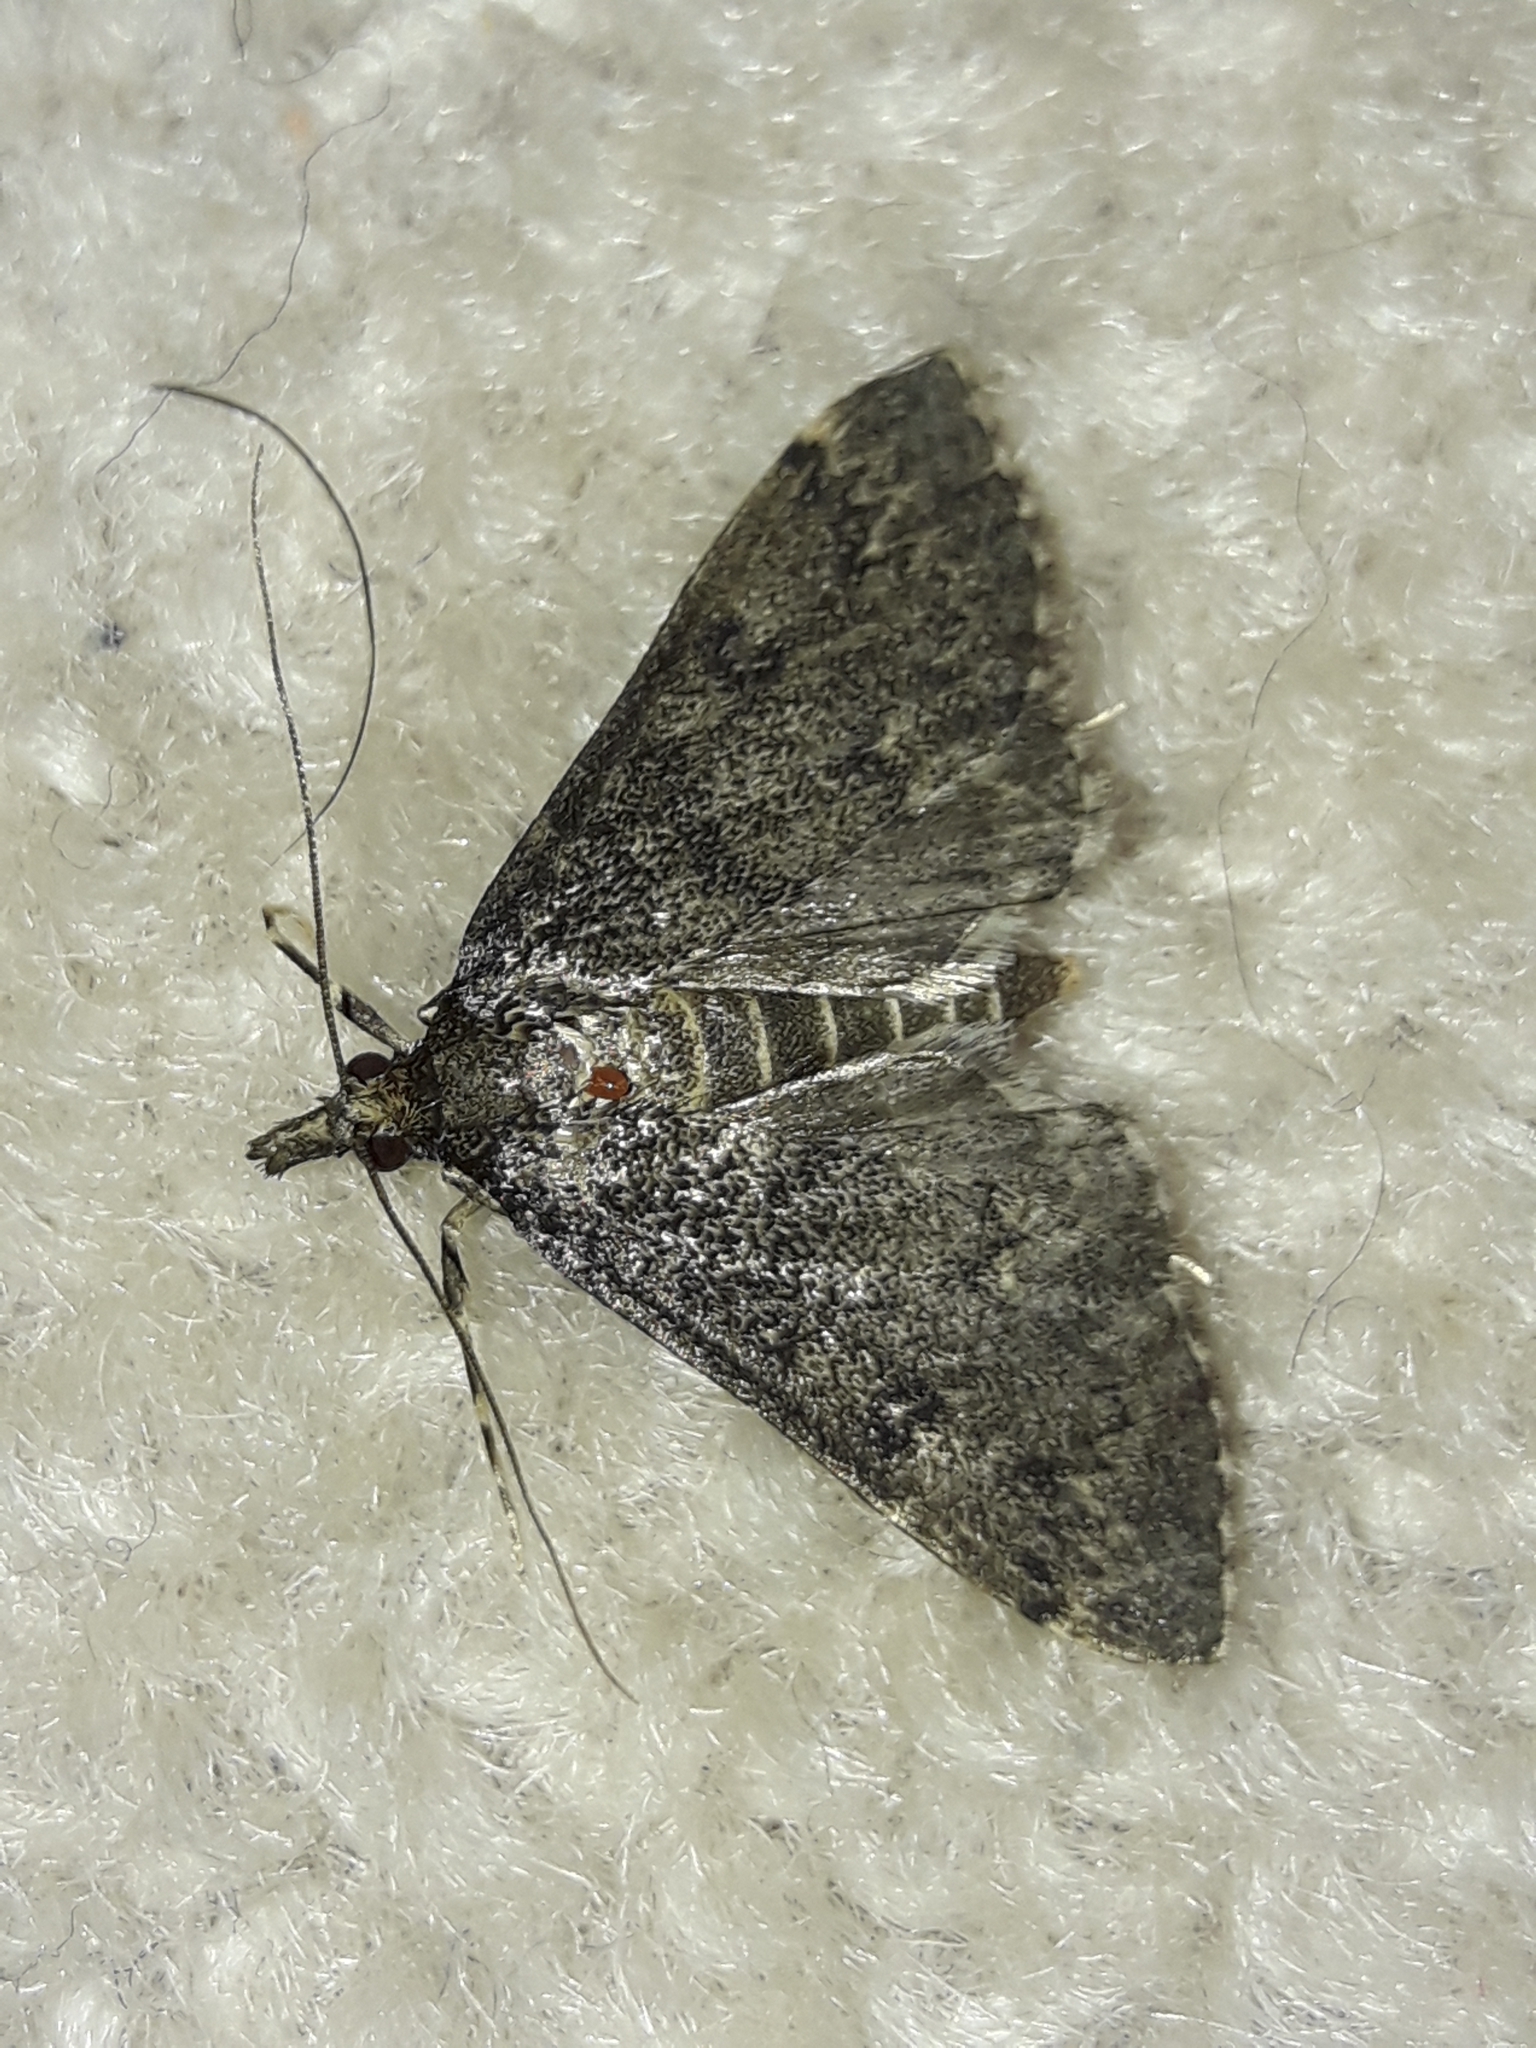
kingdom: Animalia
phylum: Arthropoda
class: Insecta
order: Lepidoptera
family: Crambidae
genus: Loxostege
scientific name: Loxostege Proternia philocapna
